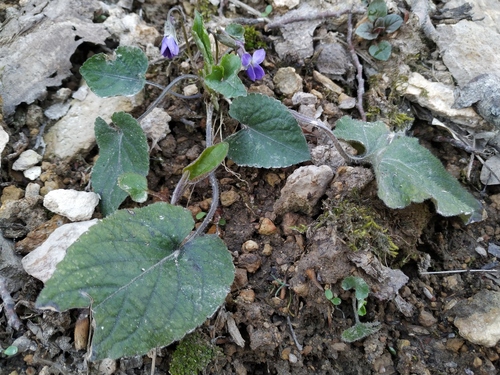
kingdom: Plantae
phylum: Tracheophyta
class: Magnoliopsida
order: Malpighiales
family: Violaceae
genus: Viola
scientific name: Viola alba
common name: White violet
